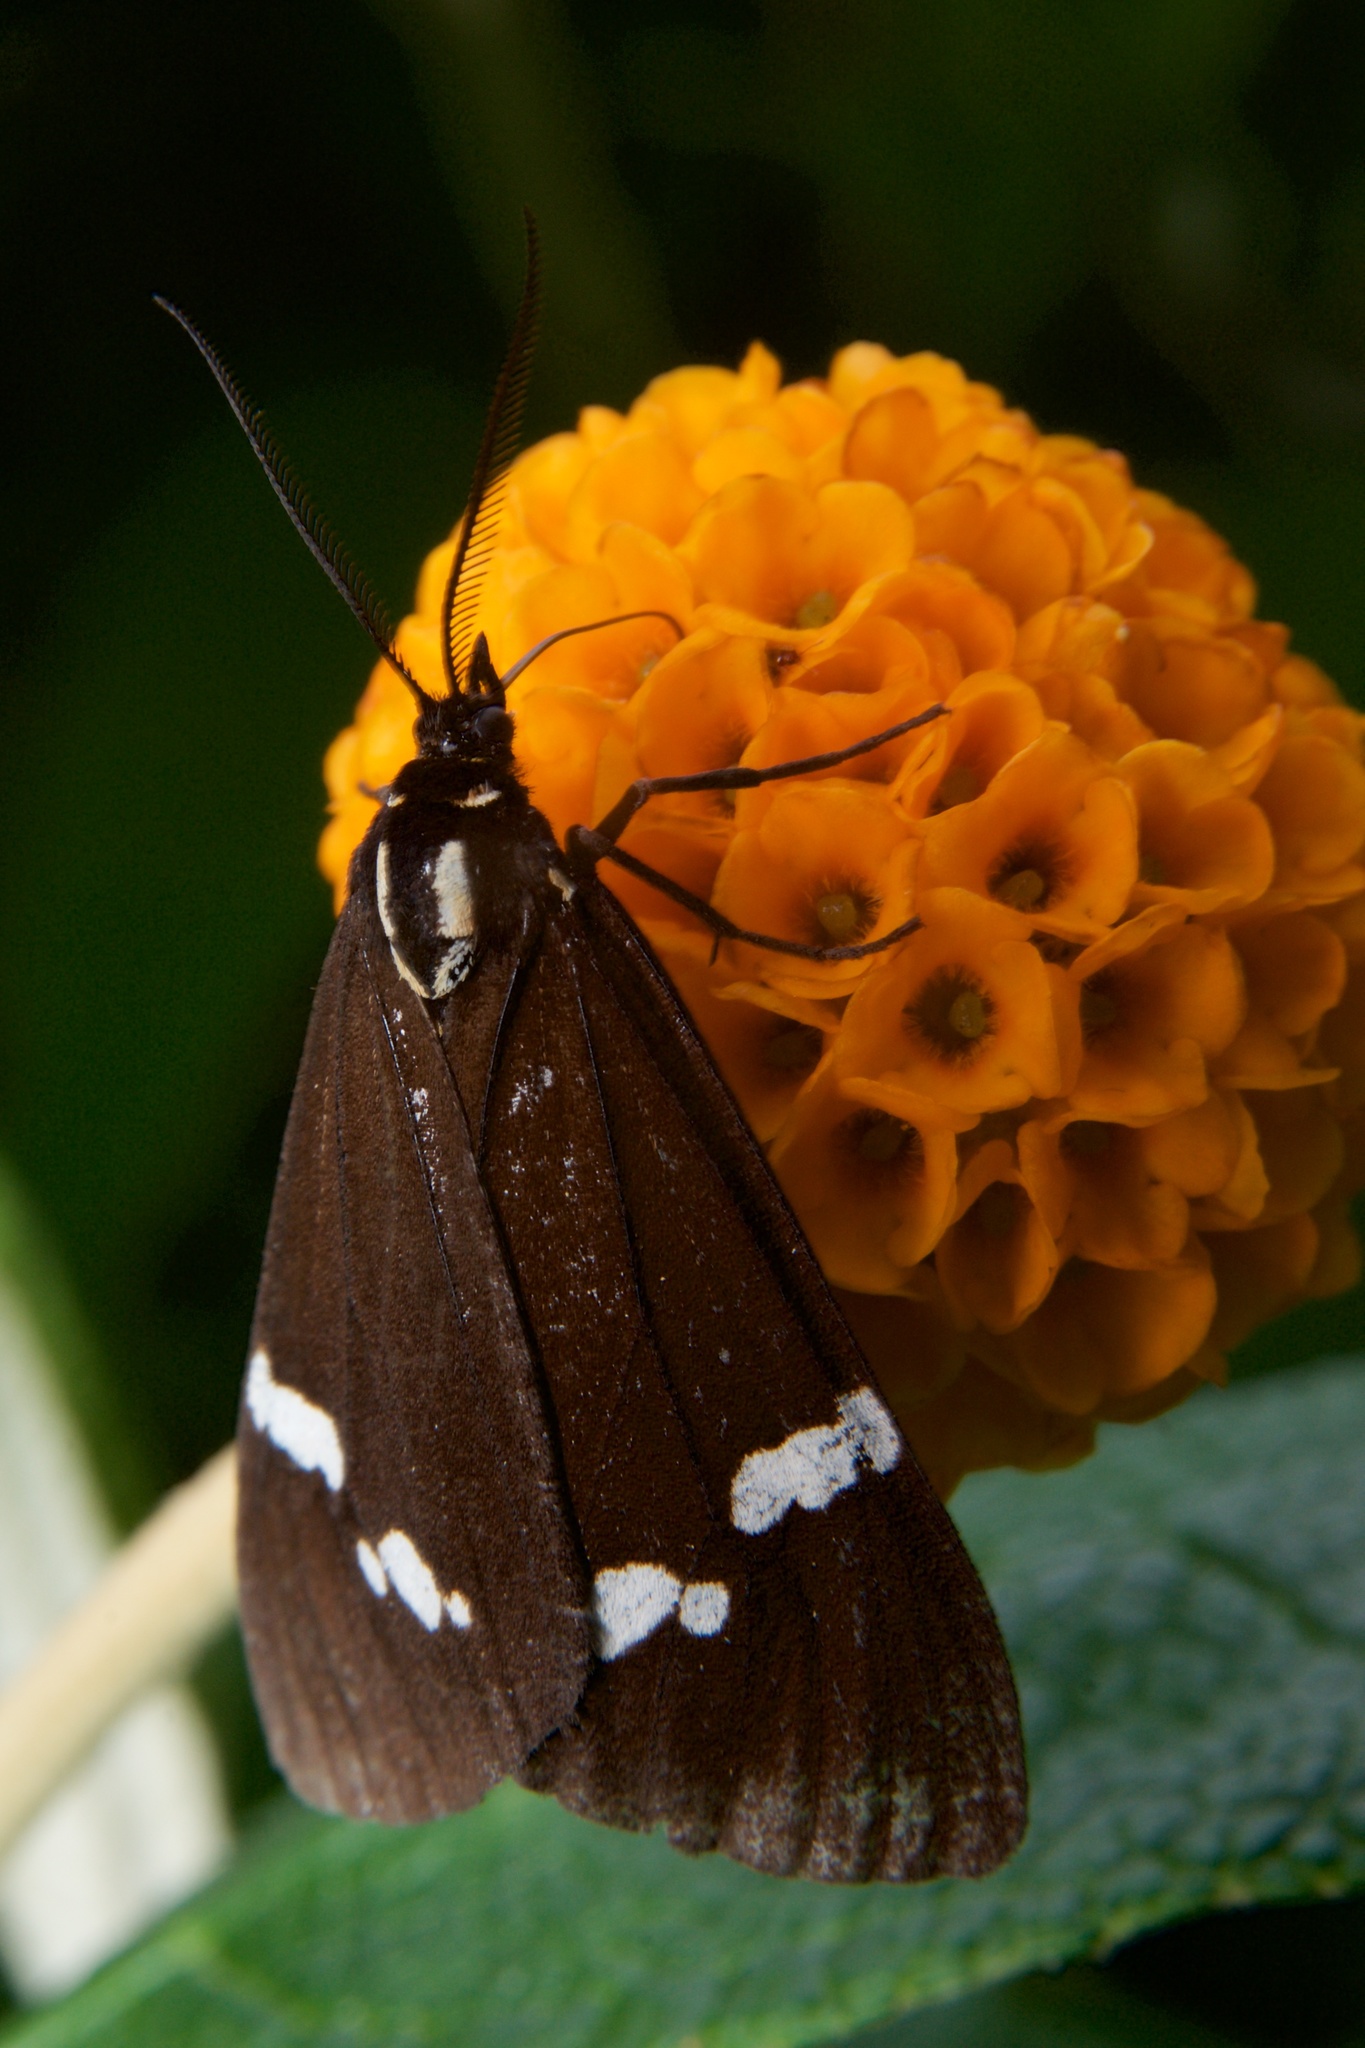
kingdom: Animalia
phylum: Arthropoda
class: Insecta
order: Lepidoptera
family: Erebidae
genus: Nyctemera
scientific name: Nyctemera annulatum
